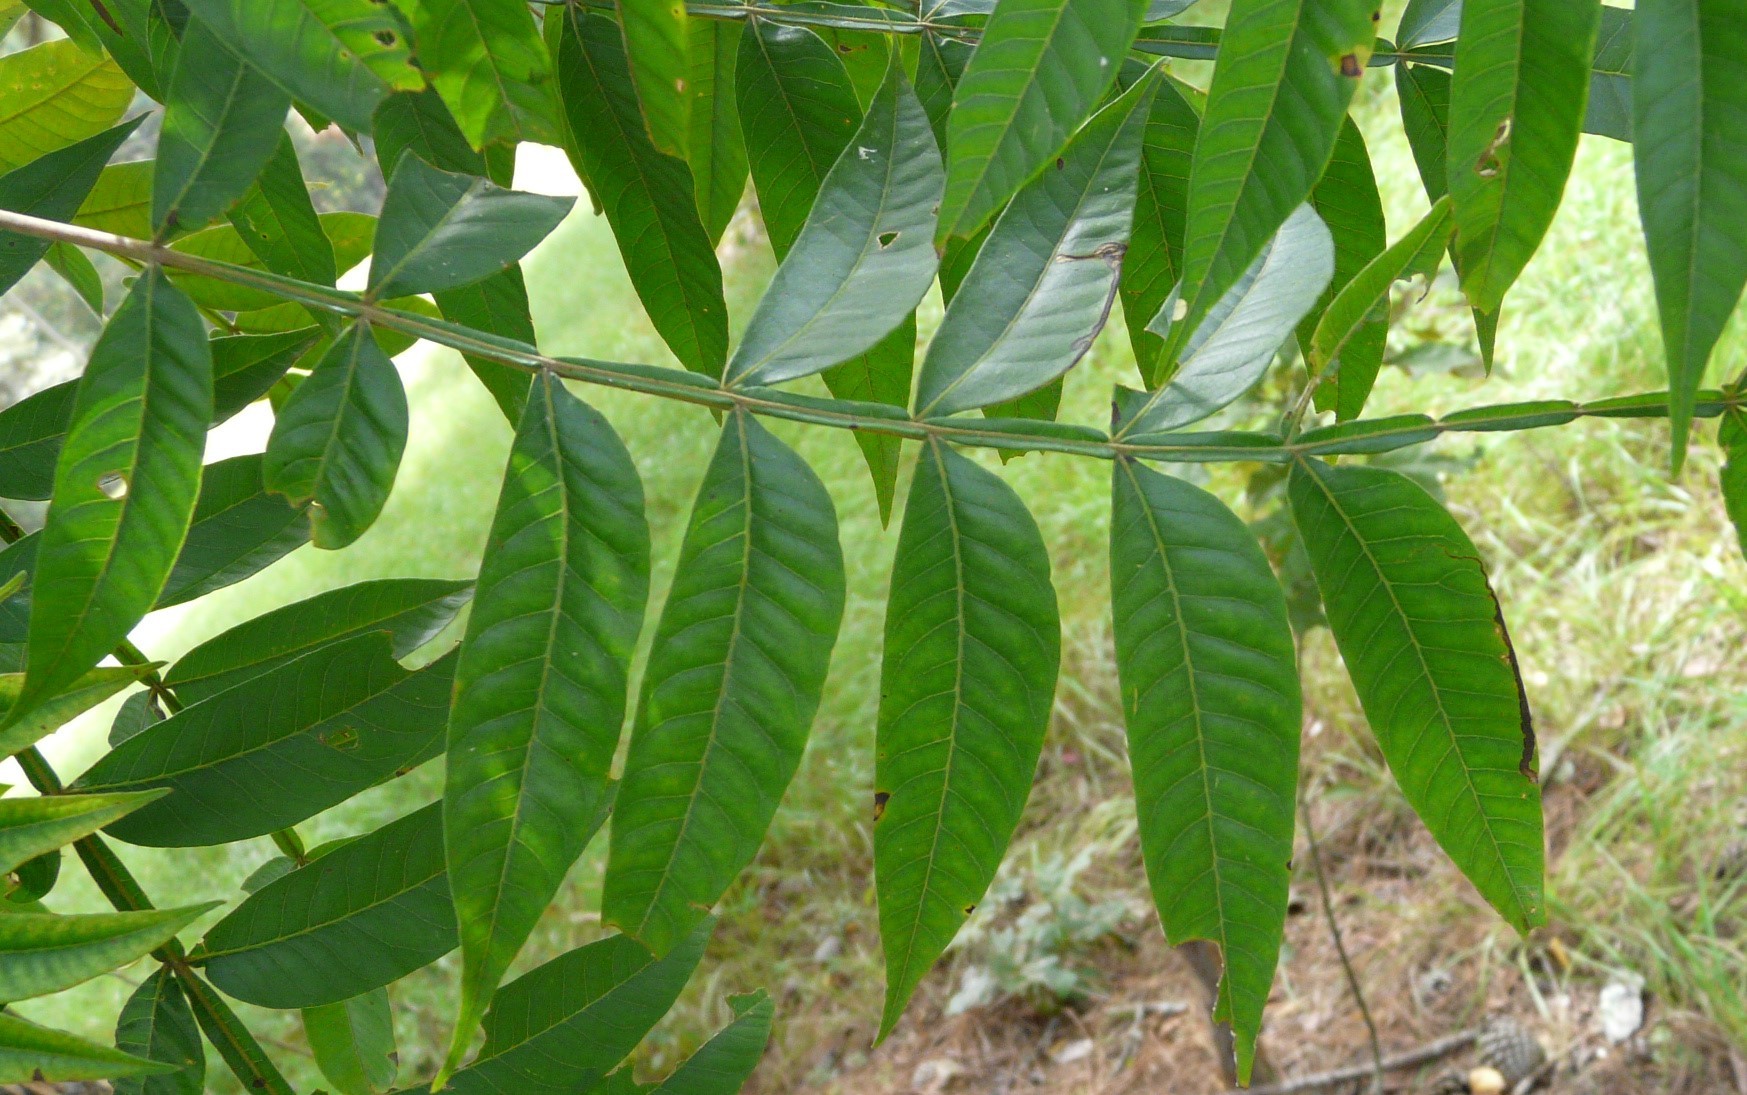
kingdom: Plantae
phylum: Tracheophyta
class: Magnoliopsida
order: Sapindales
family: Anacardiaceae
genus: Rhus
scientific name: Rhus copallina
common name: Shining sumac
